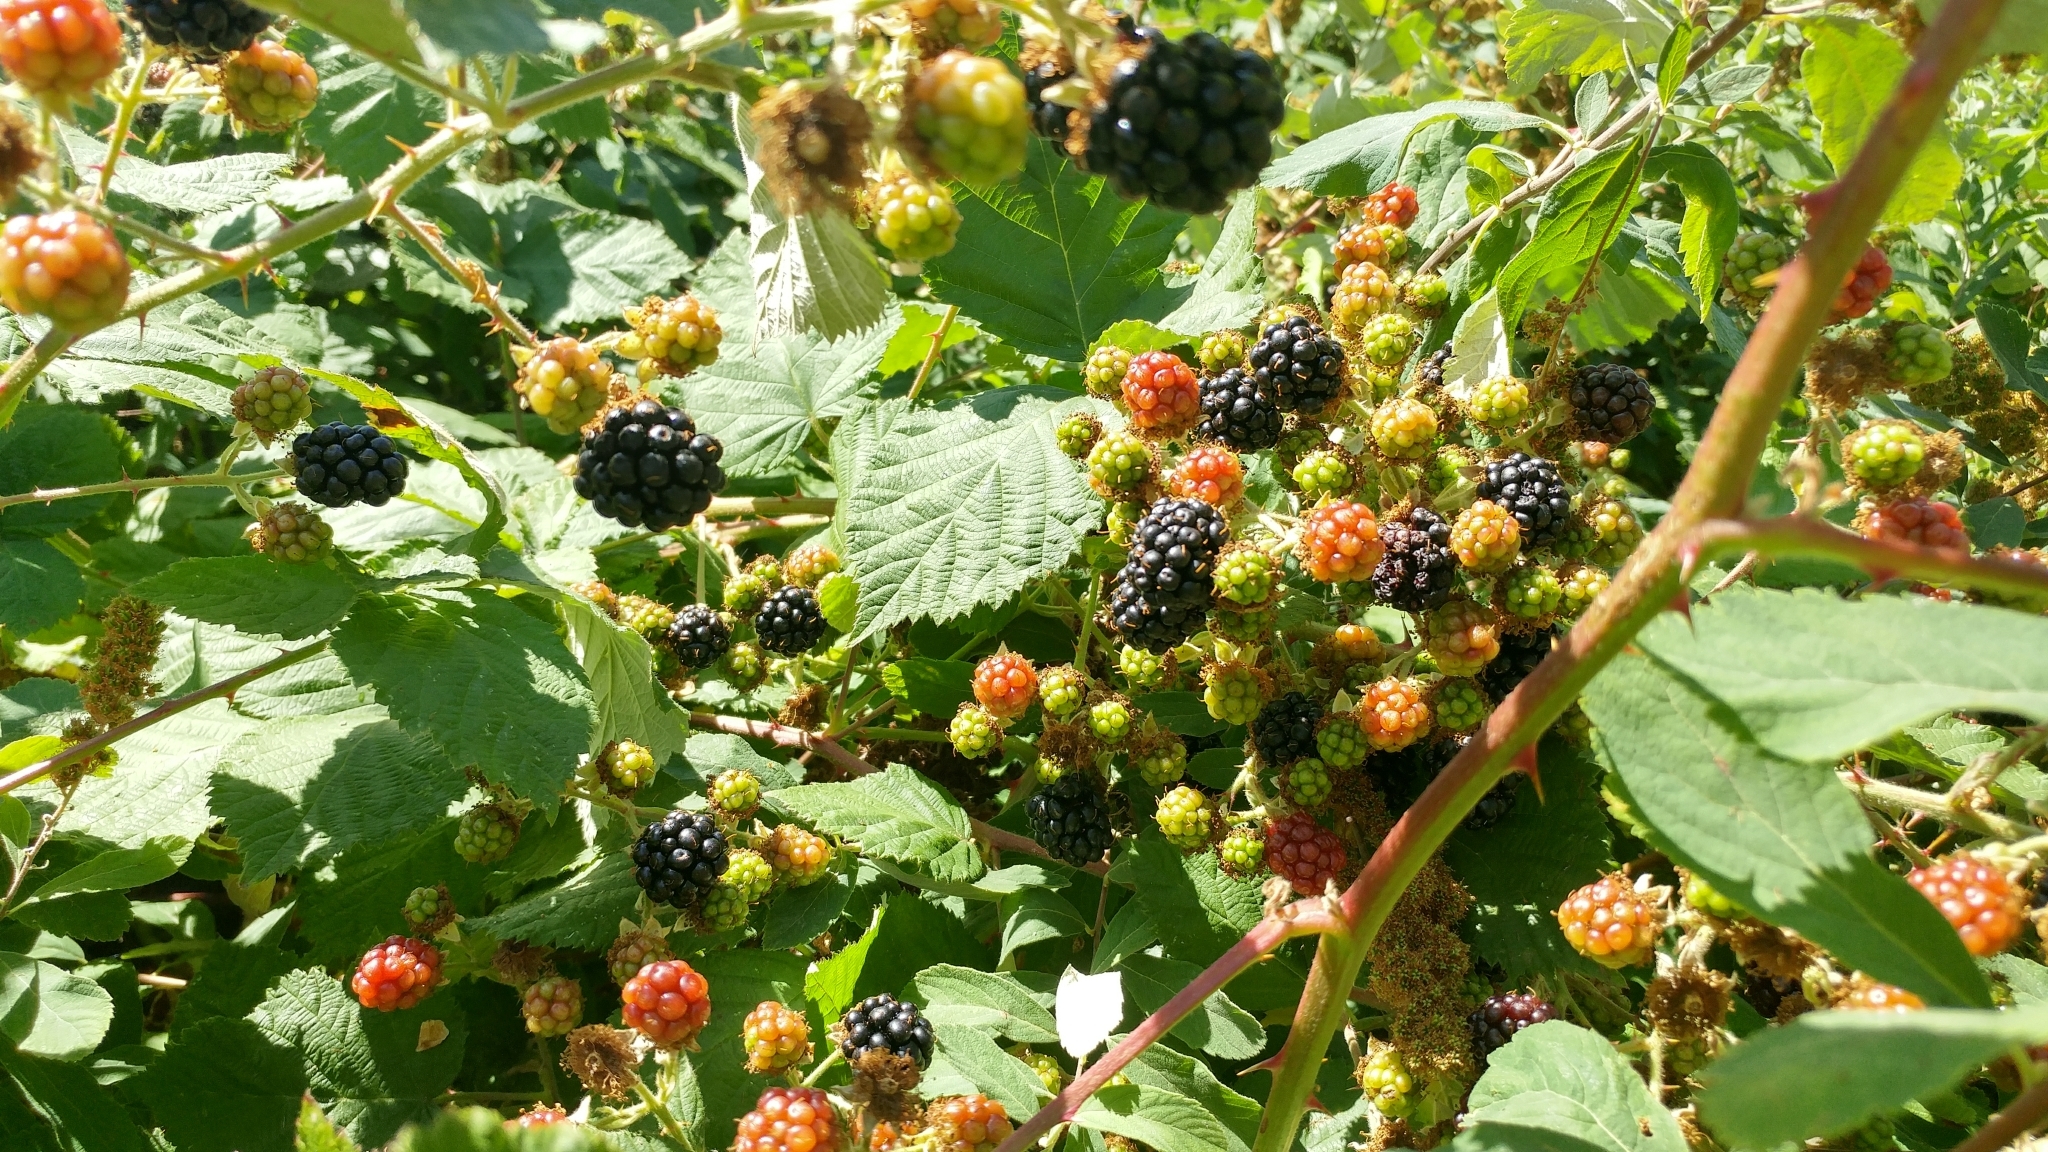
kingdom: Plantae
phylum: Tracheophyta
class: Magnoliopsida
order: Rosales
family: Rosaceae
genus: Rubus
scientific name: Rubus armeniacus
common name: Himalayan blackberry
